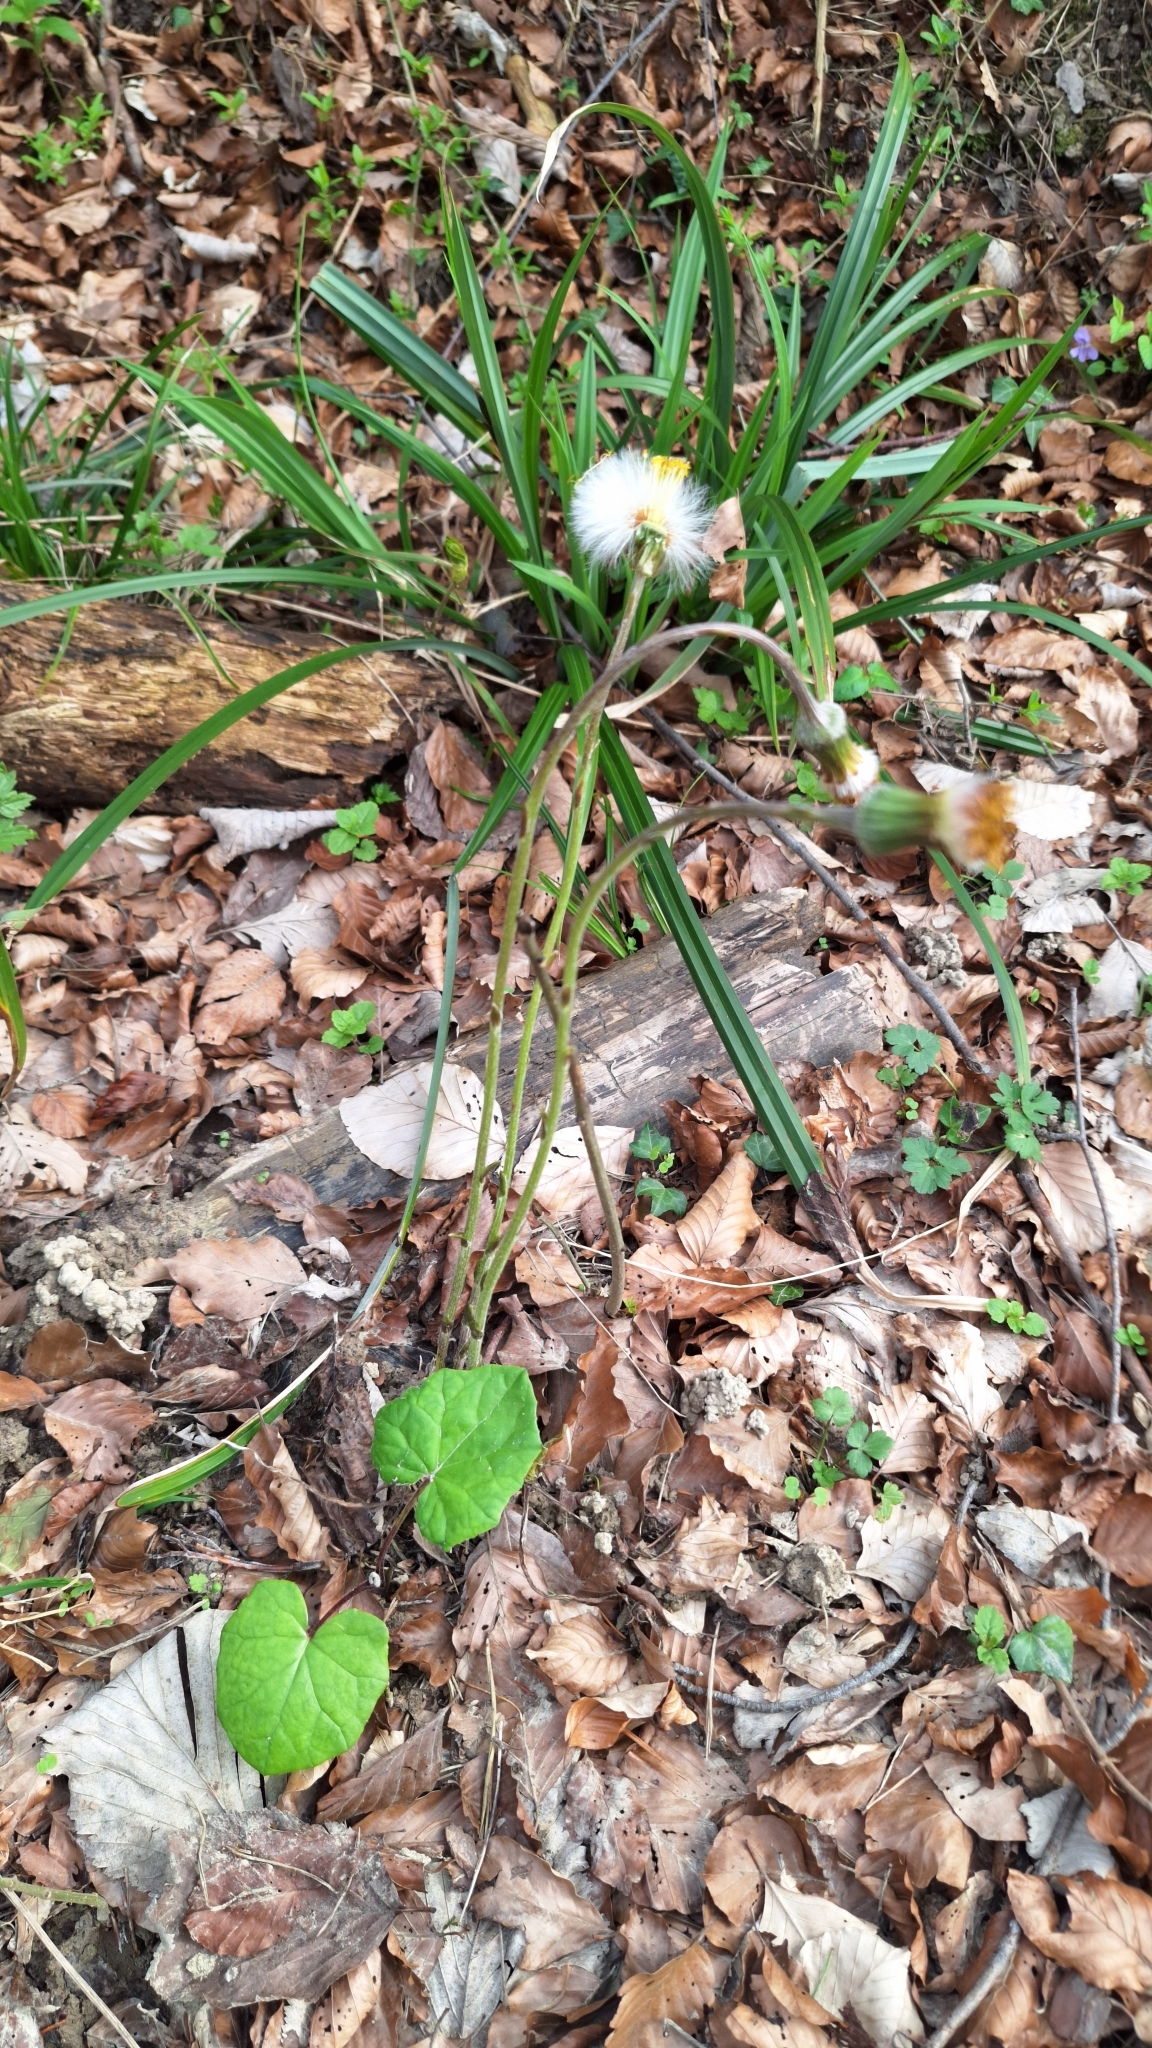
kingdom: Plantae
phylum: Tracheophyta
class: Magnoliopsida
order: Asterales
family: Asteraceae
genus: Tussilago
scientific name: Tussilago farfara
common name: Coltsfoot
